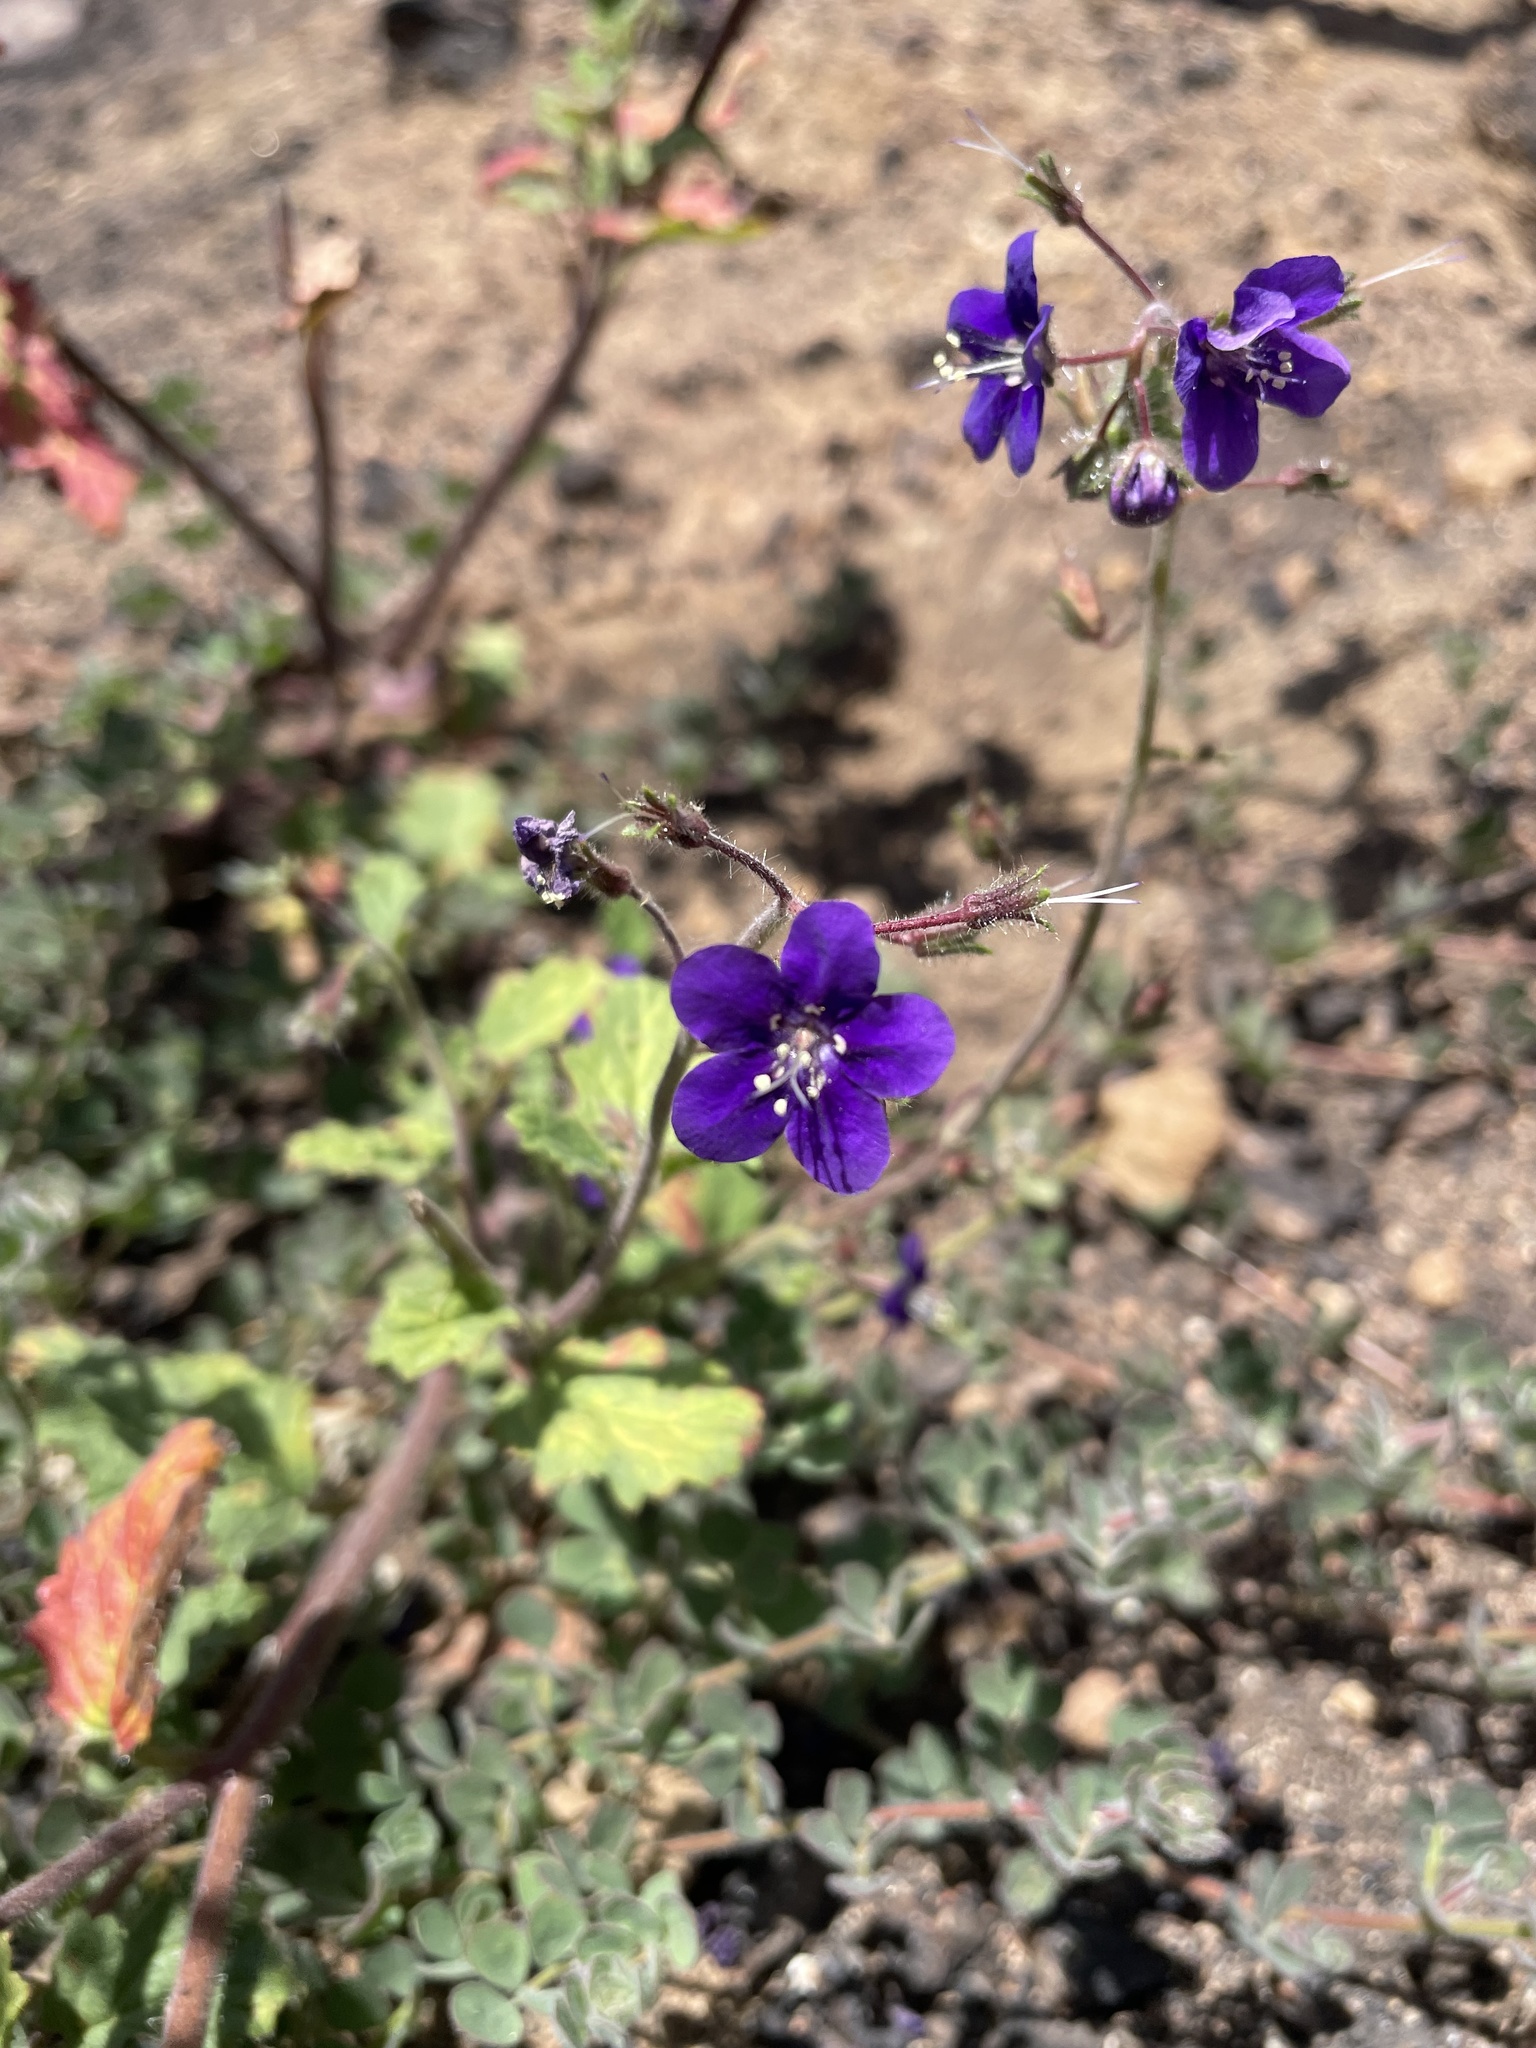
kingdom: Plantae
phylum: Tracheophyta
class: Magnoliopsida
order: Boraginales
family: Hydrophyllaceae
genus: Phacelia
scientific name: Phacelia parryi
